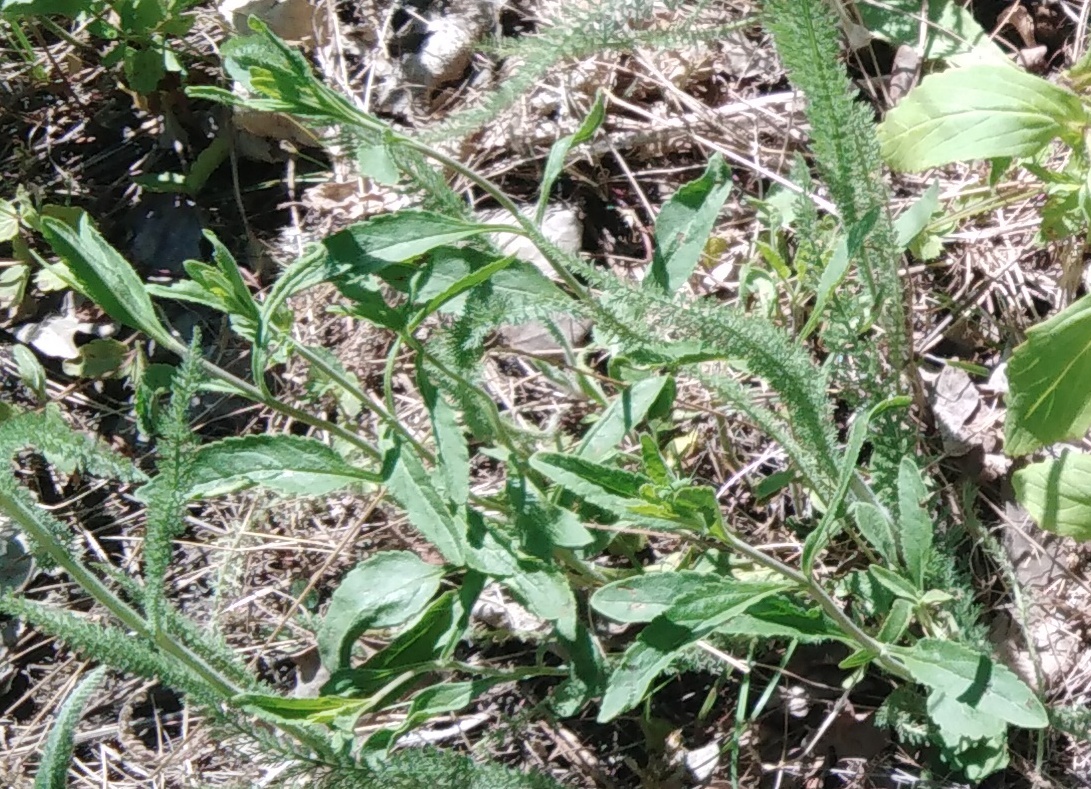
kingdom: Plantae
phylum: Tracheophyta
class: Magnoliopsida
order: Lamiales
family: Plantaginaceae
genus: Veronica
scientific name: Veronica spicata
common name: Spiked speedwell
